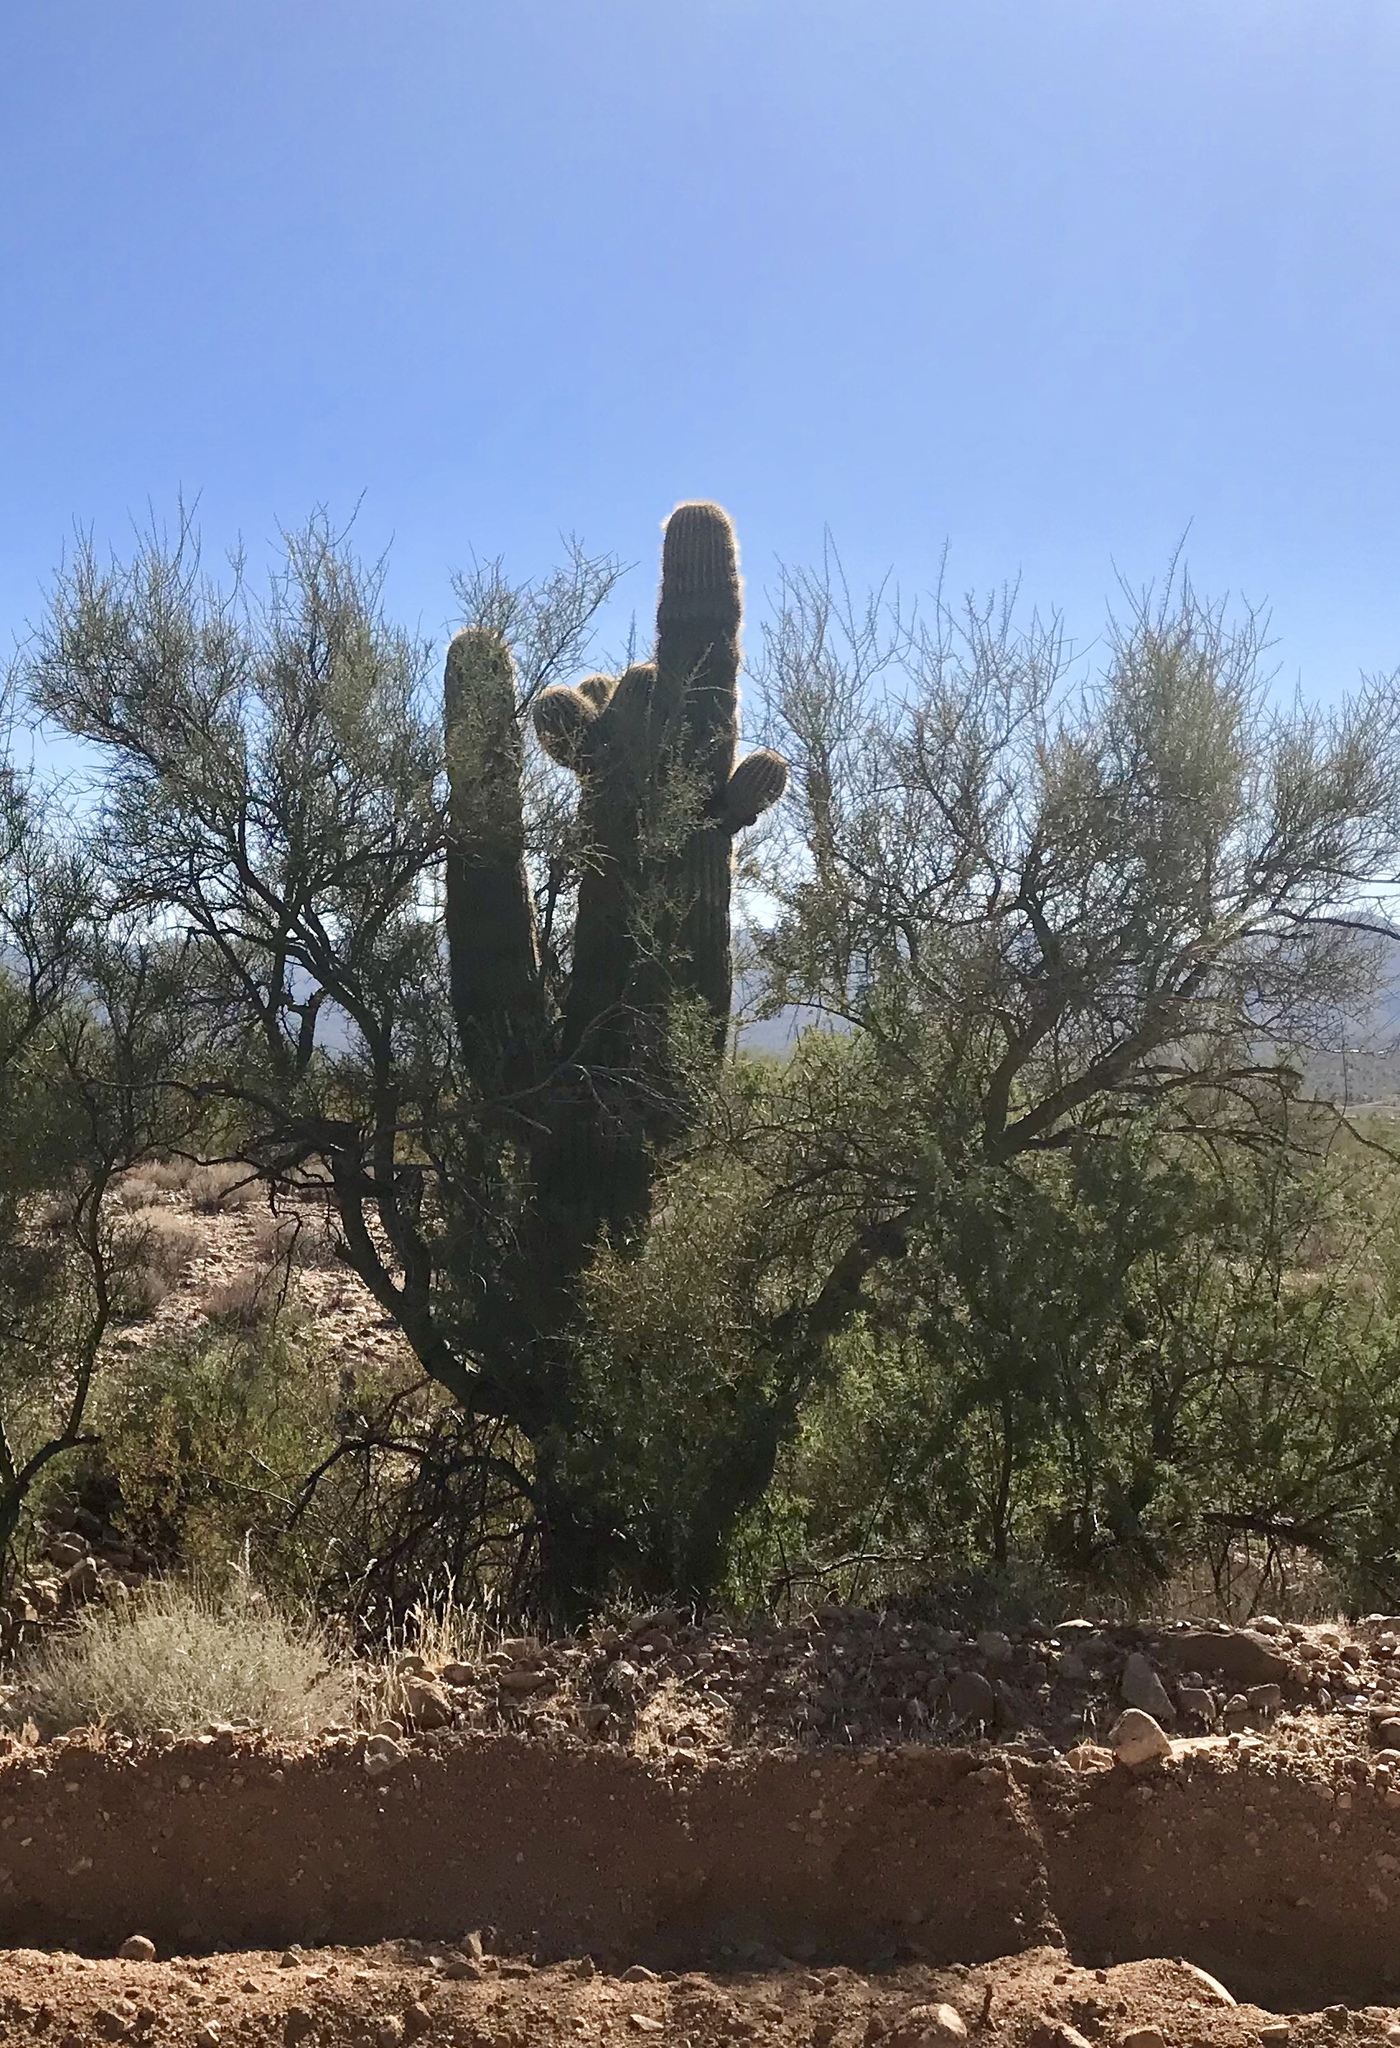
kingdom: Plantae
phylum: Tracheophyta
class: Magnoliopsida
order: Caryophyllales
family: Cactaceae
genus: Carnegiea
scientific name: Carnegiea gigantea
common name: Saguaro
